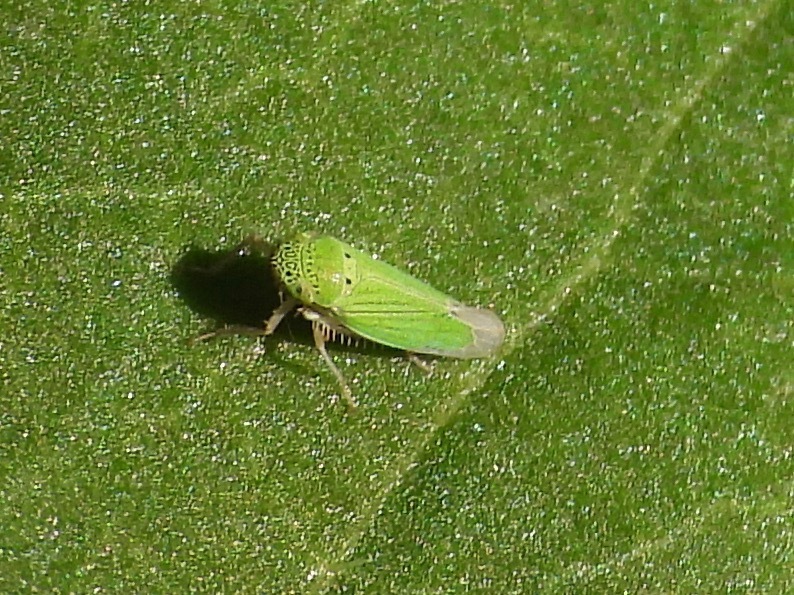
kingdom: Animalia
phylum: Arthropoda
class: Insecta
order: Hemiptera
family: Cicadellidae
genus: Hortensia
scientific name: Hortensia similis
